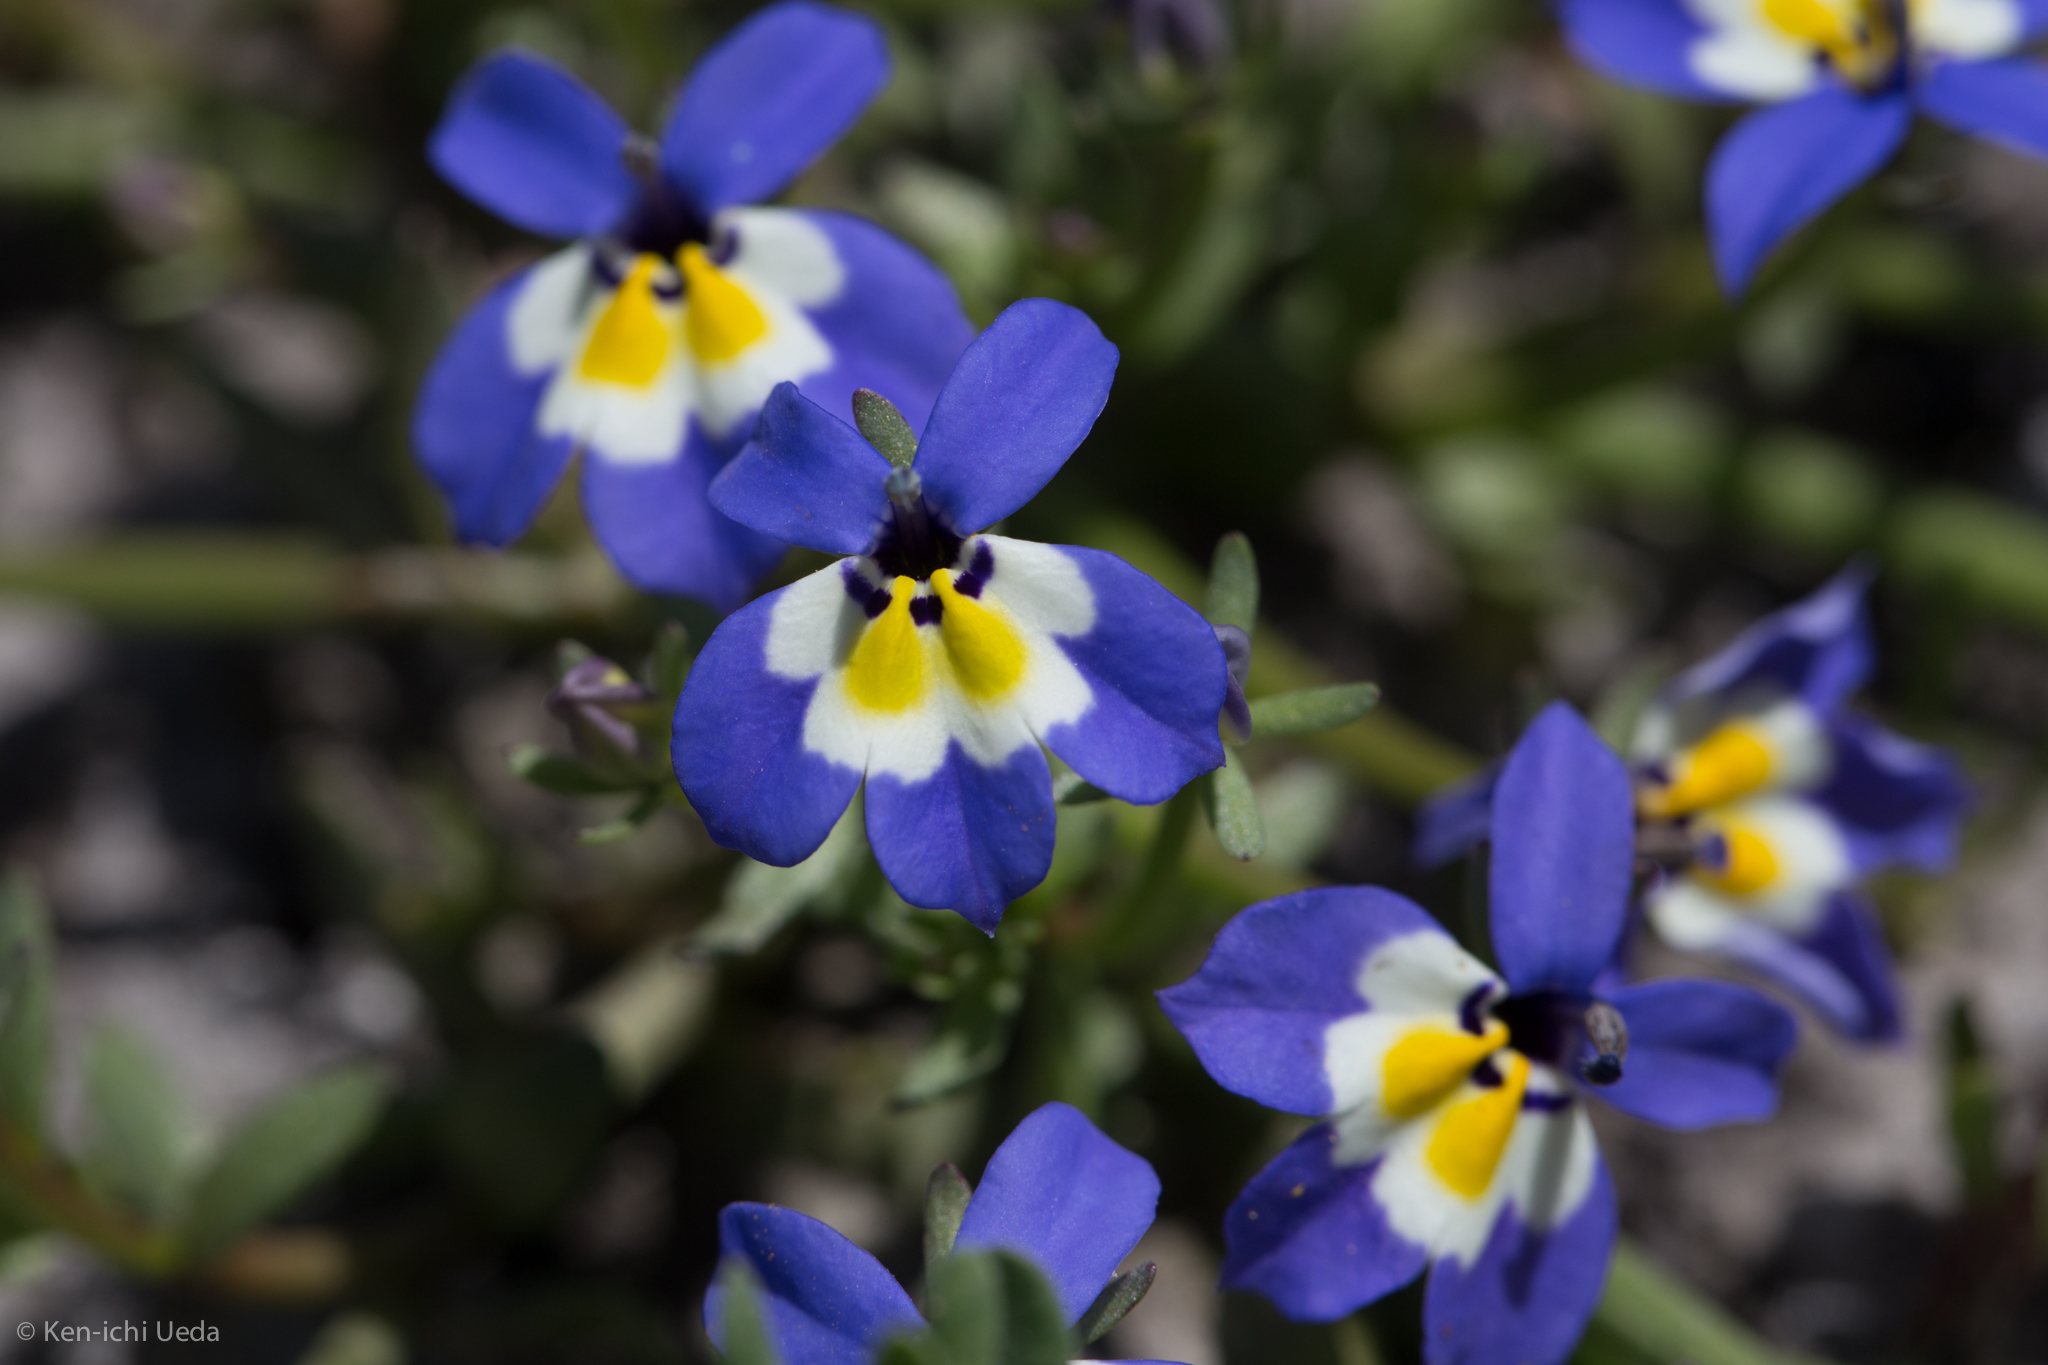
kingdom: Plantae
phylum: Tracheophyta
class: Magnoliopsida
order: Asterales
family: Campanulaceae
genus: Downingia
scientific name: Downingia pulchella
